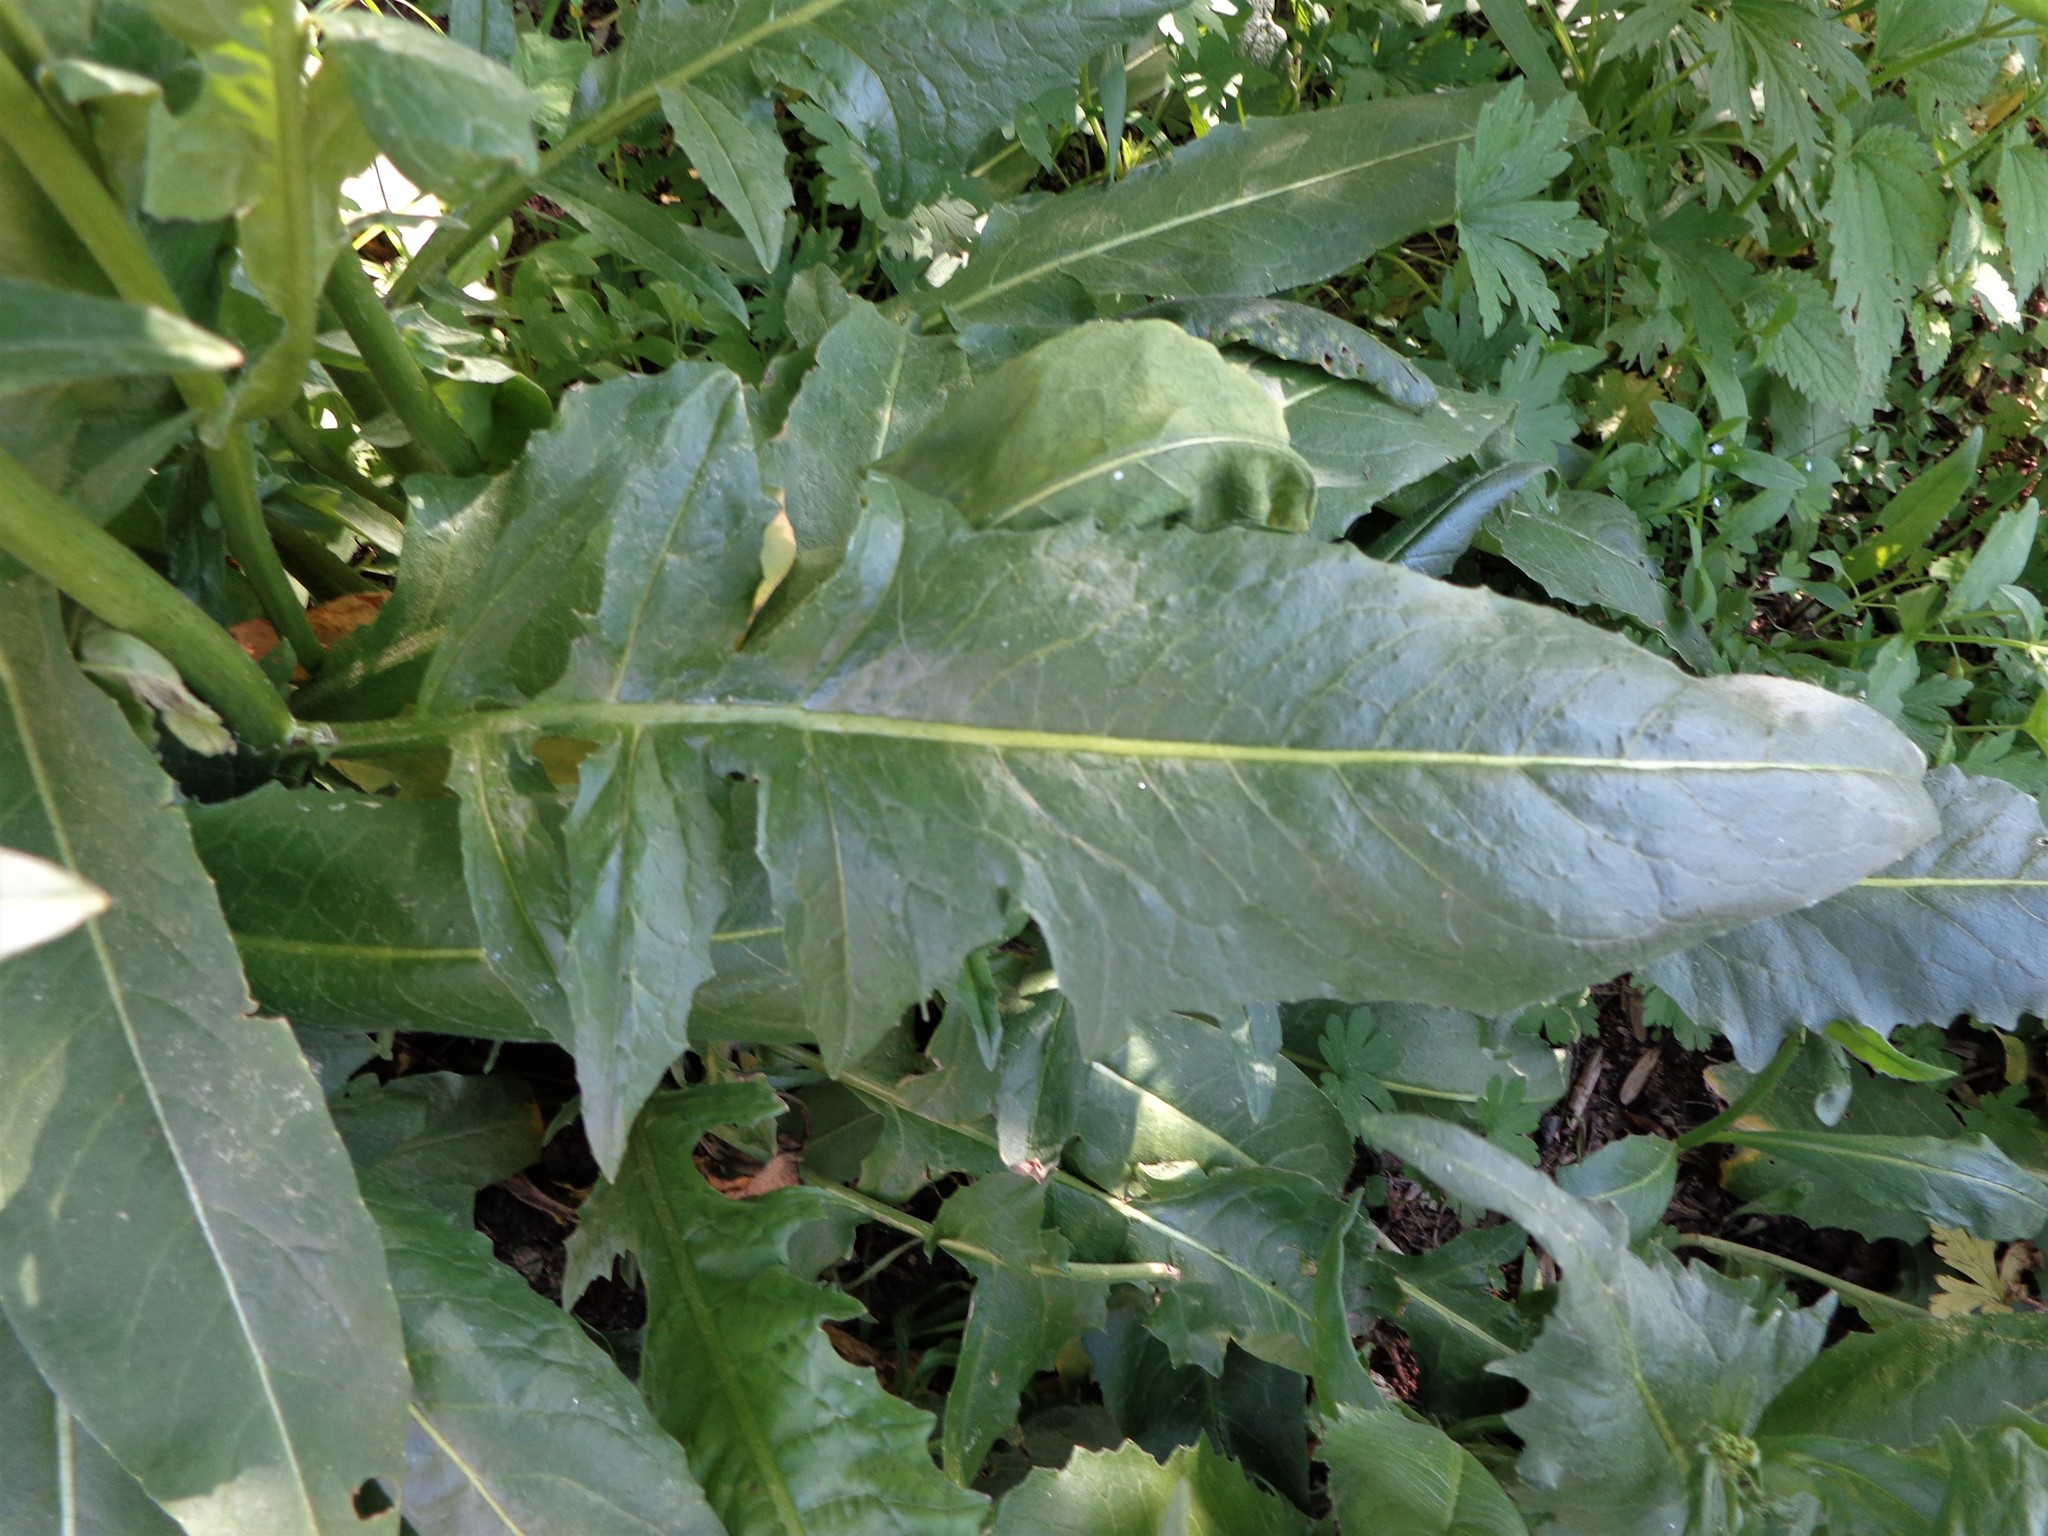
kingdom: Plantae
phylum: Tracheophyta
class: Magnoliopsida
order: Brassicales
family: Brassicaceae
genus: Bunias
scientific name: Bunias orientalis
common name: Warty-cabbage
